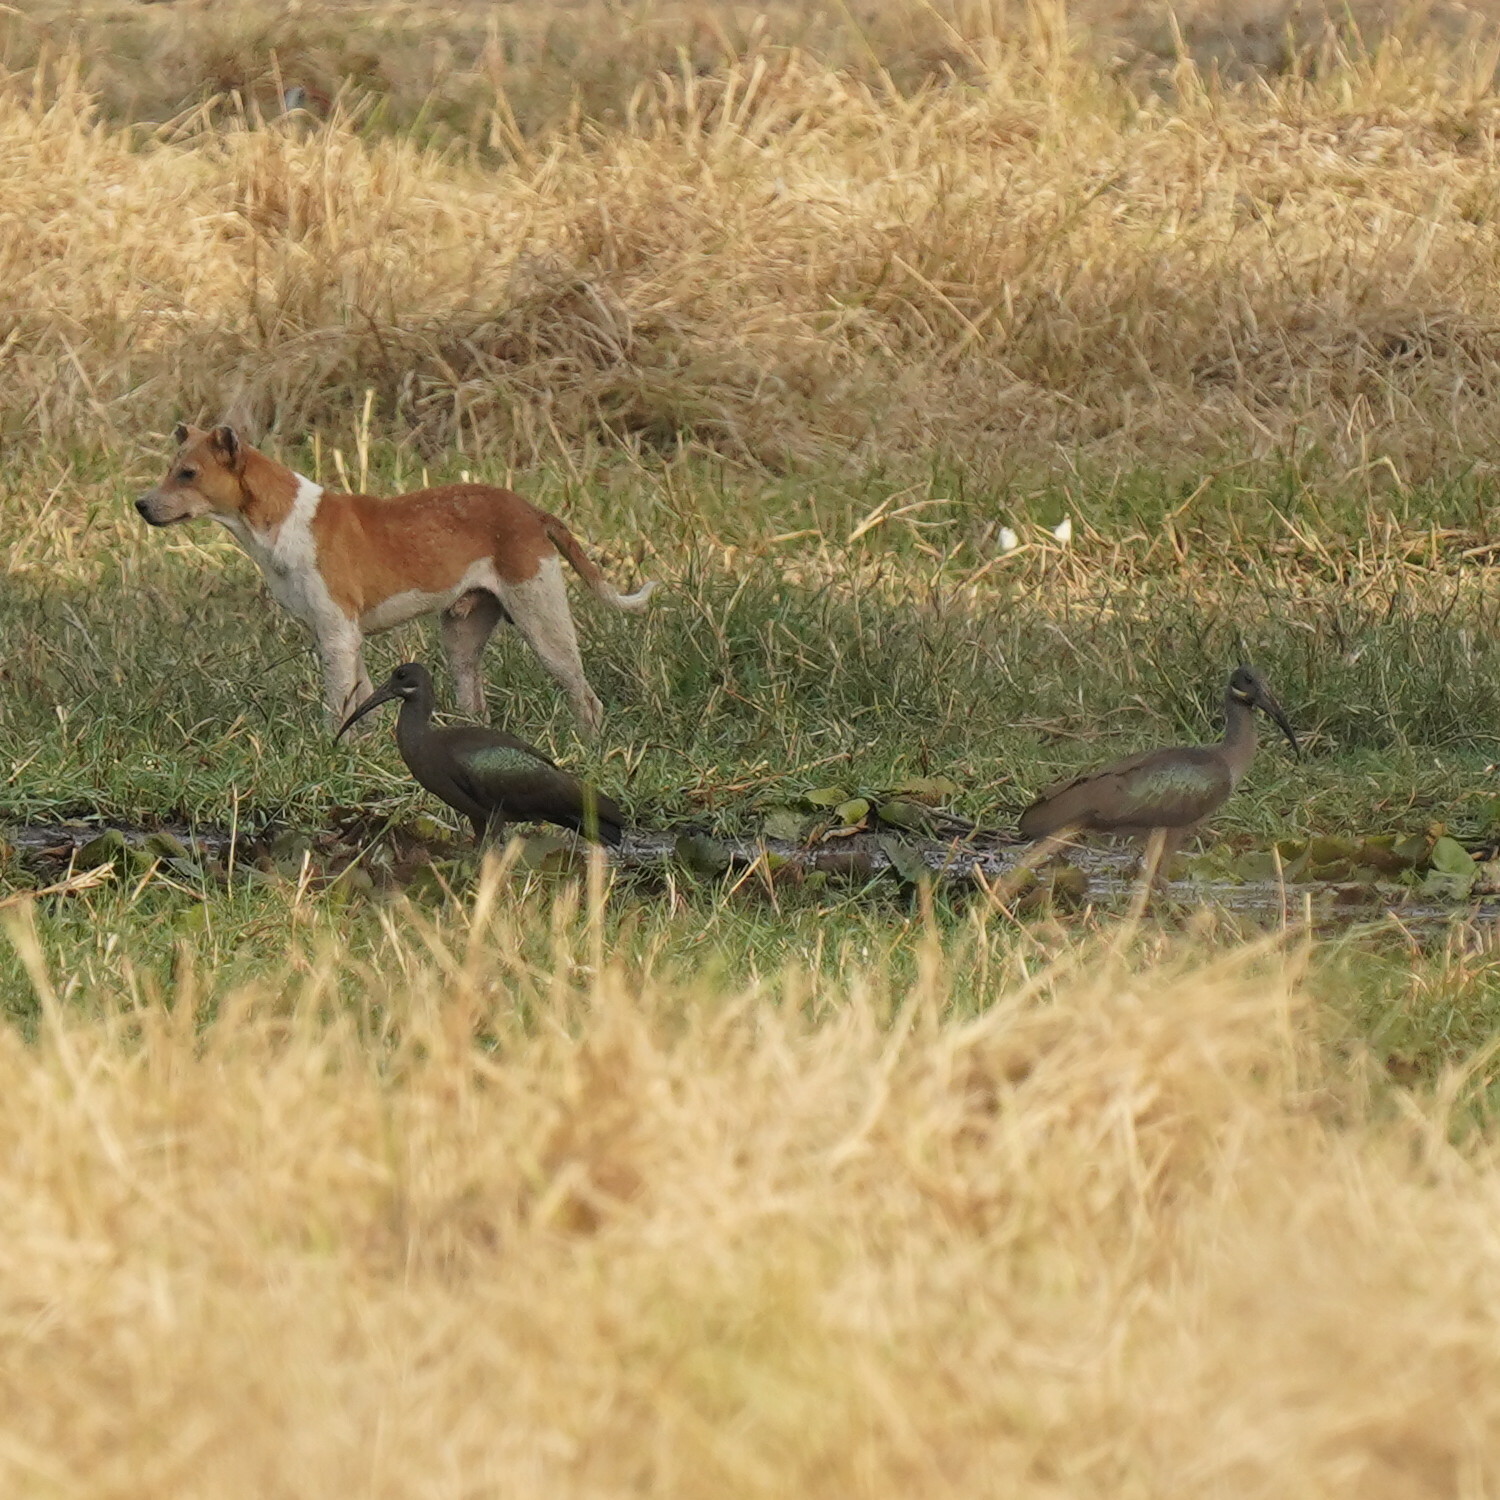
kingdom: Animalia
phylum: Chordata
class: Aves
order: Pelecaniformes
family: Threskiornithidae
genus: Bostrychia
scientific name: Bostrychia hagedash
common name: Hadada ibis
